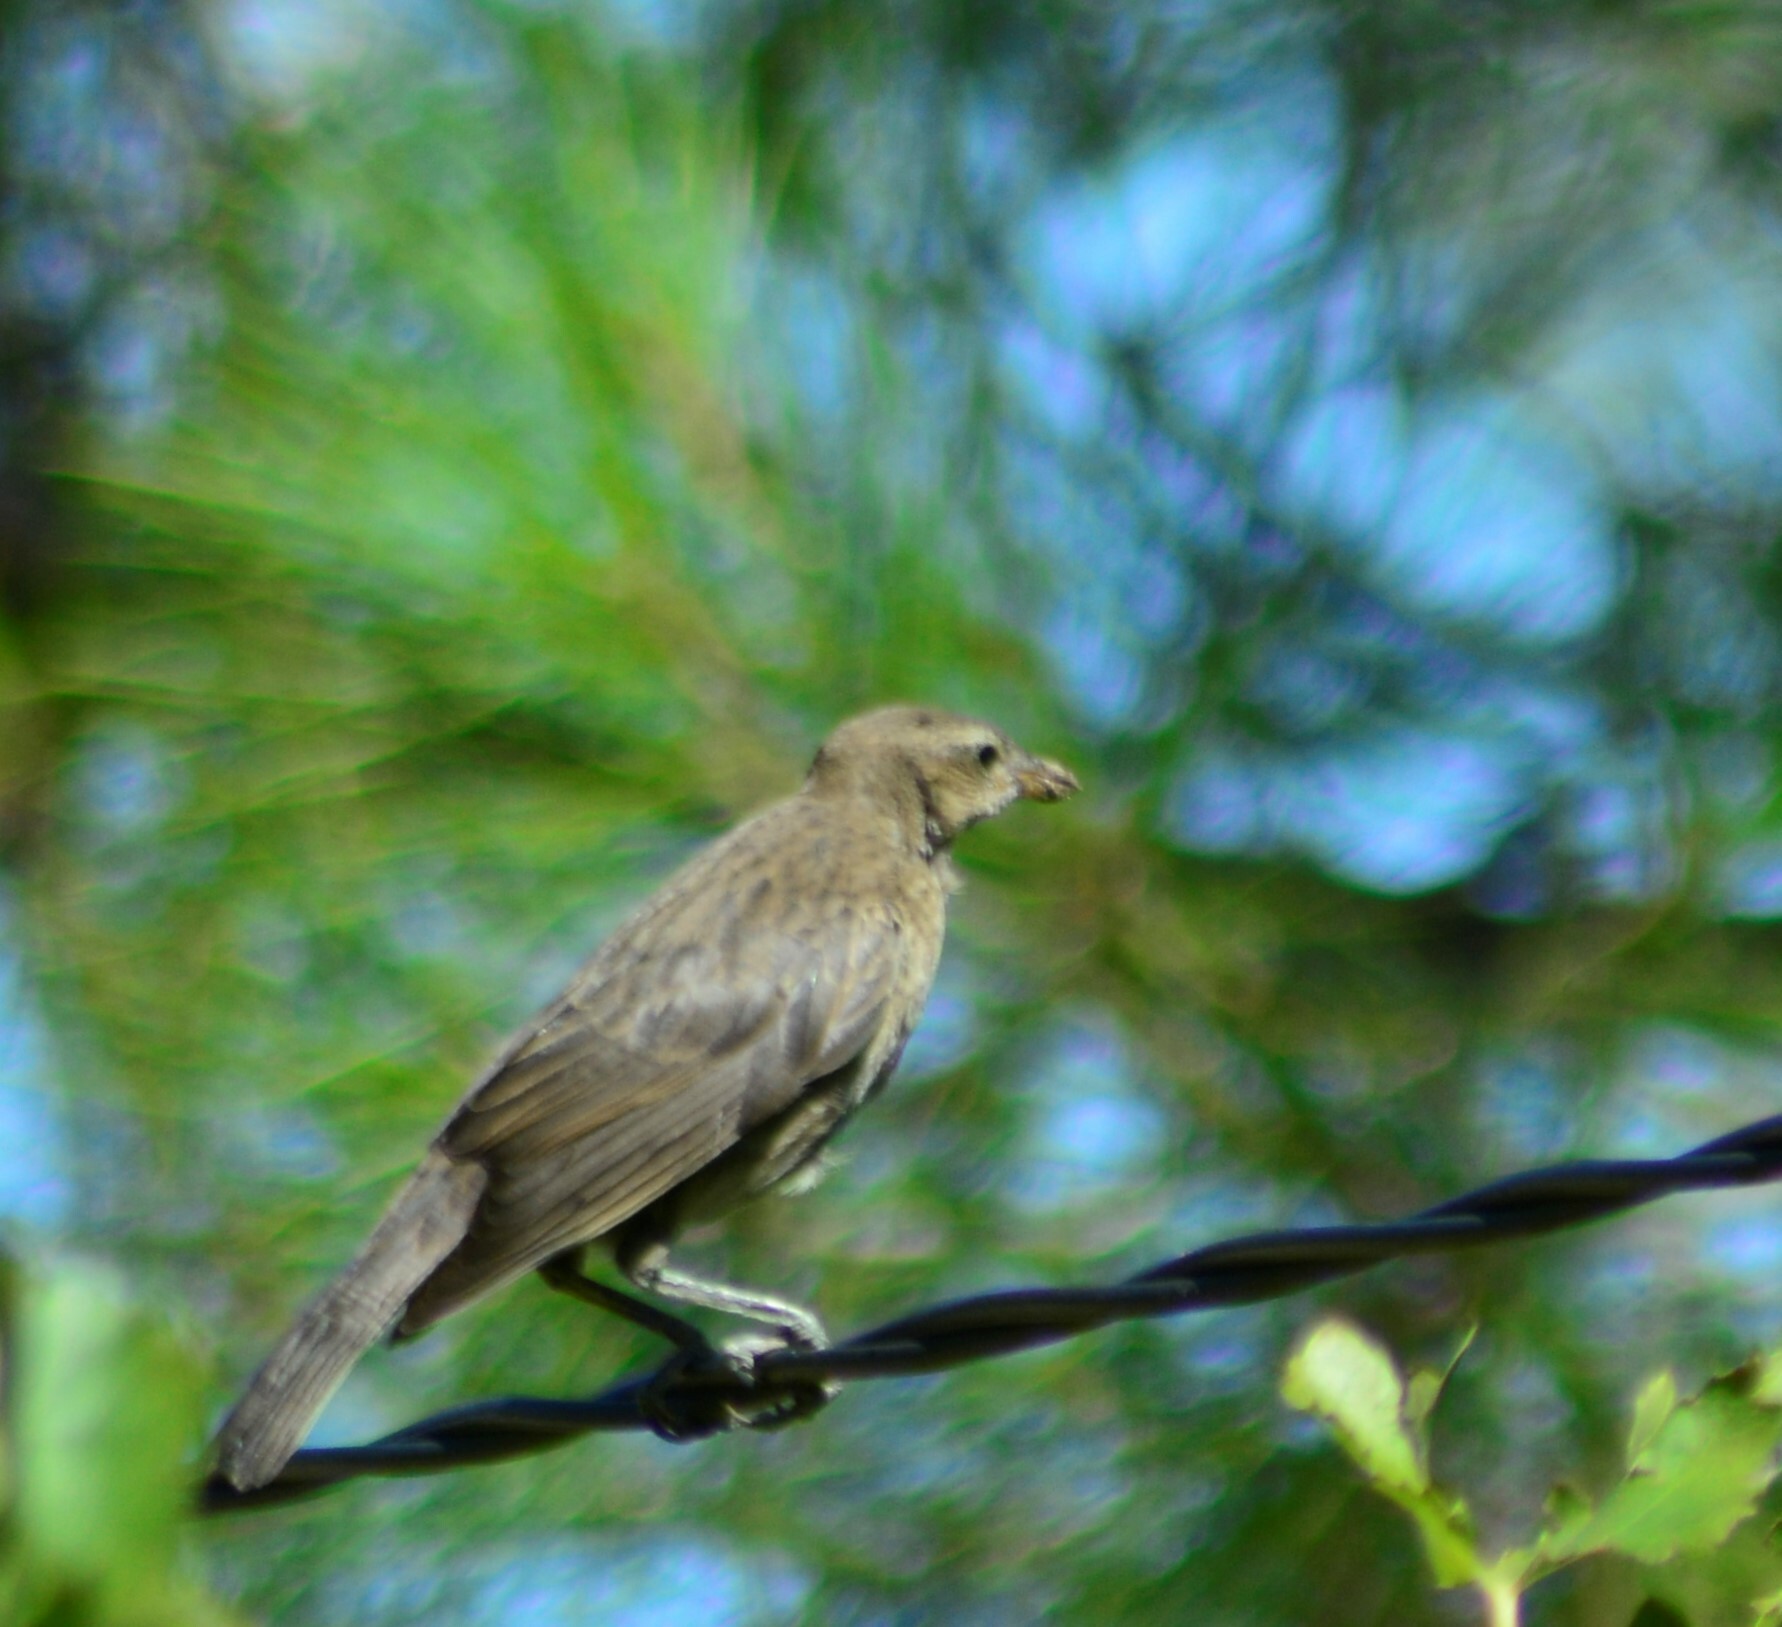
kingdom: Animalia
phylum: Chordata
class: Aves
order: Passeriformes
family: Icteridae
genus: Molothrus
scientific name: Molothrus bonariensis
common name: Shiny cowbird
